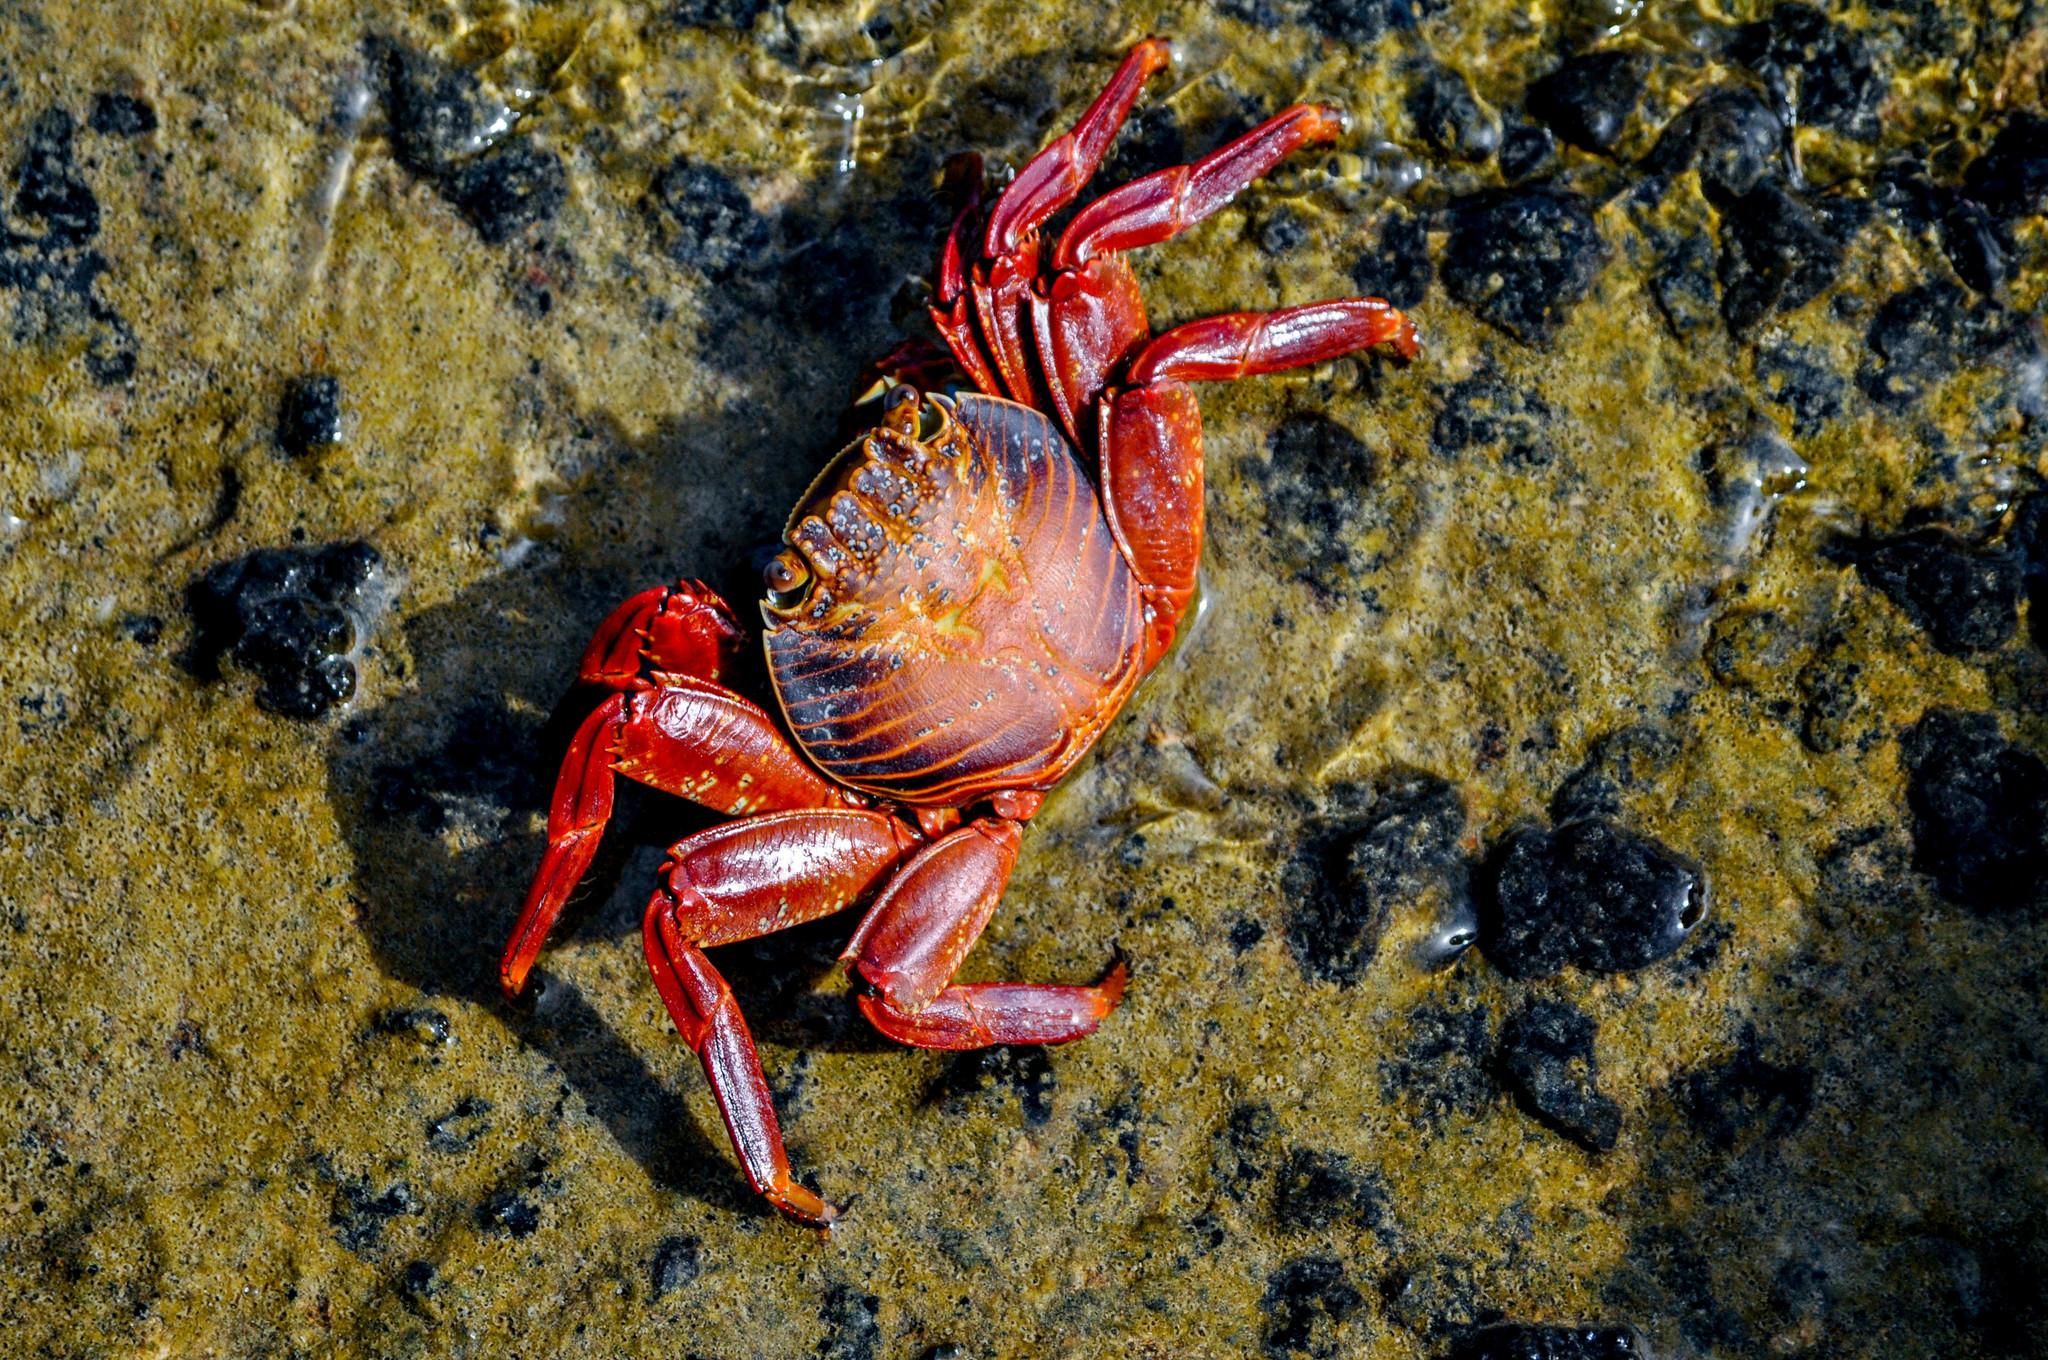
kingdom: Animalia
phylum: Arthropoda
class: Malacostraca
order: Decapoda
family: Grapsidae
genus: Grapsus
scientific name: Grapsus grapsus
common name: Sally lightfoot
